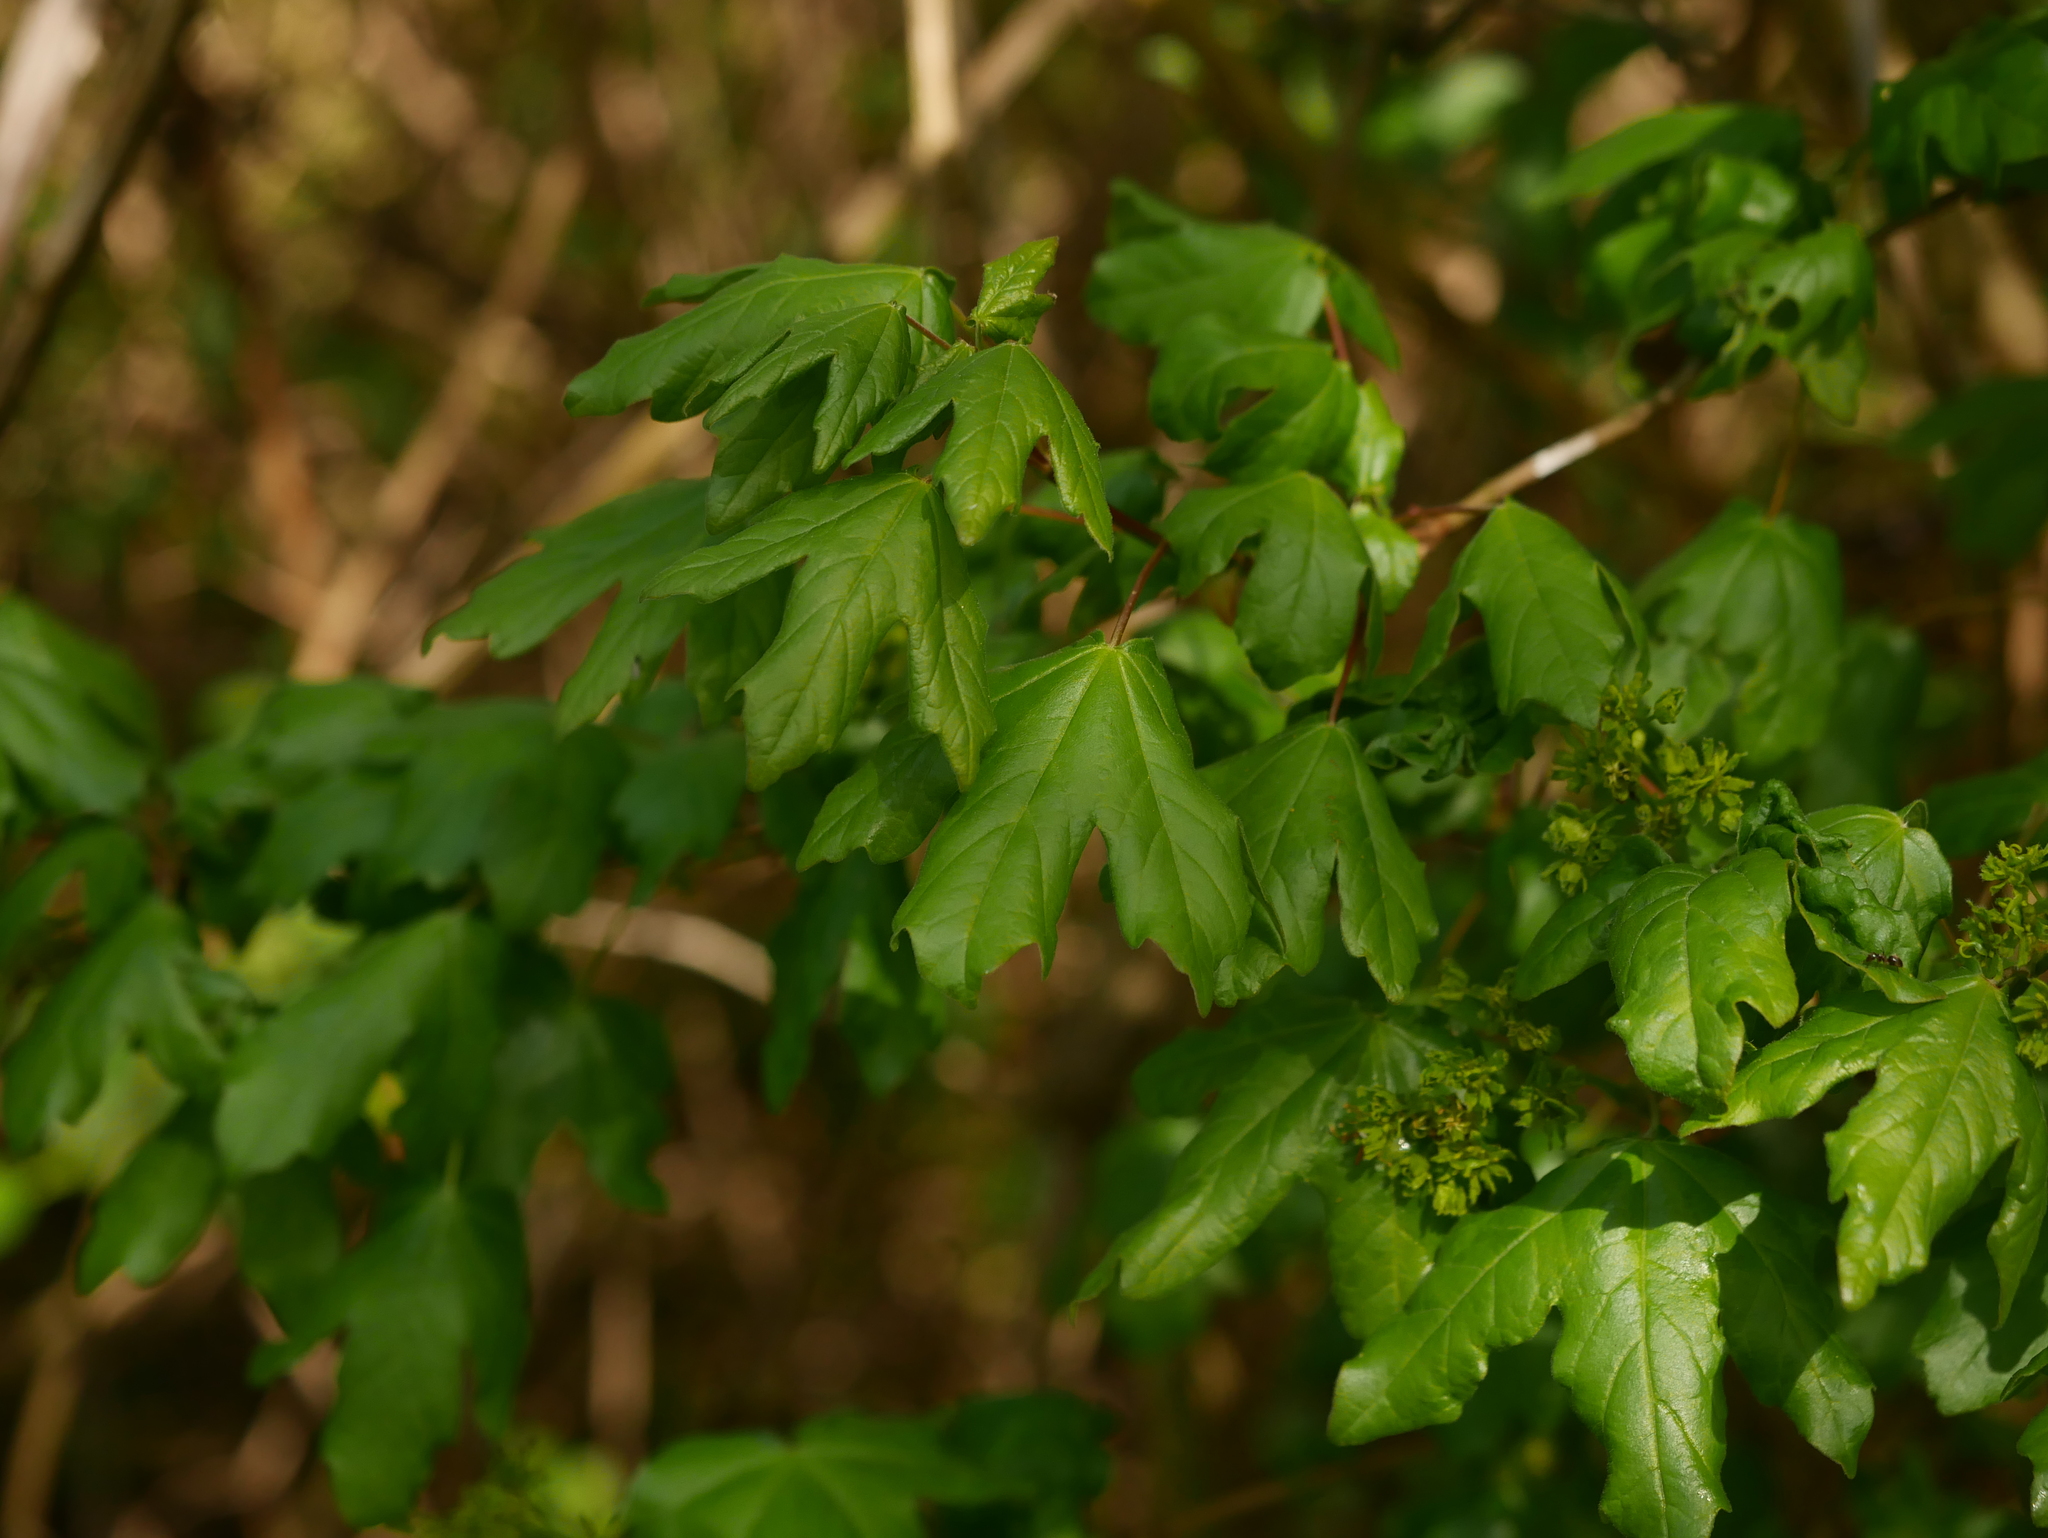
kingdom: Plantae
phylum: Tracheophyta
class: Magnoliopsida
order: Sapindales
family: Sapindaceae
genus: Acer
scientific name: Acer campestre
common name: Field maple
